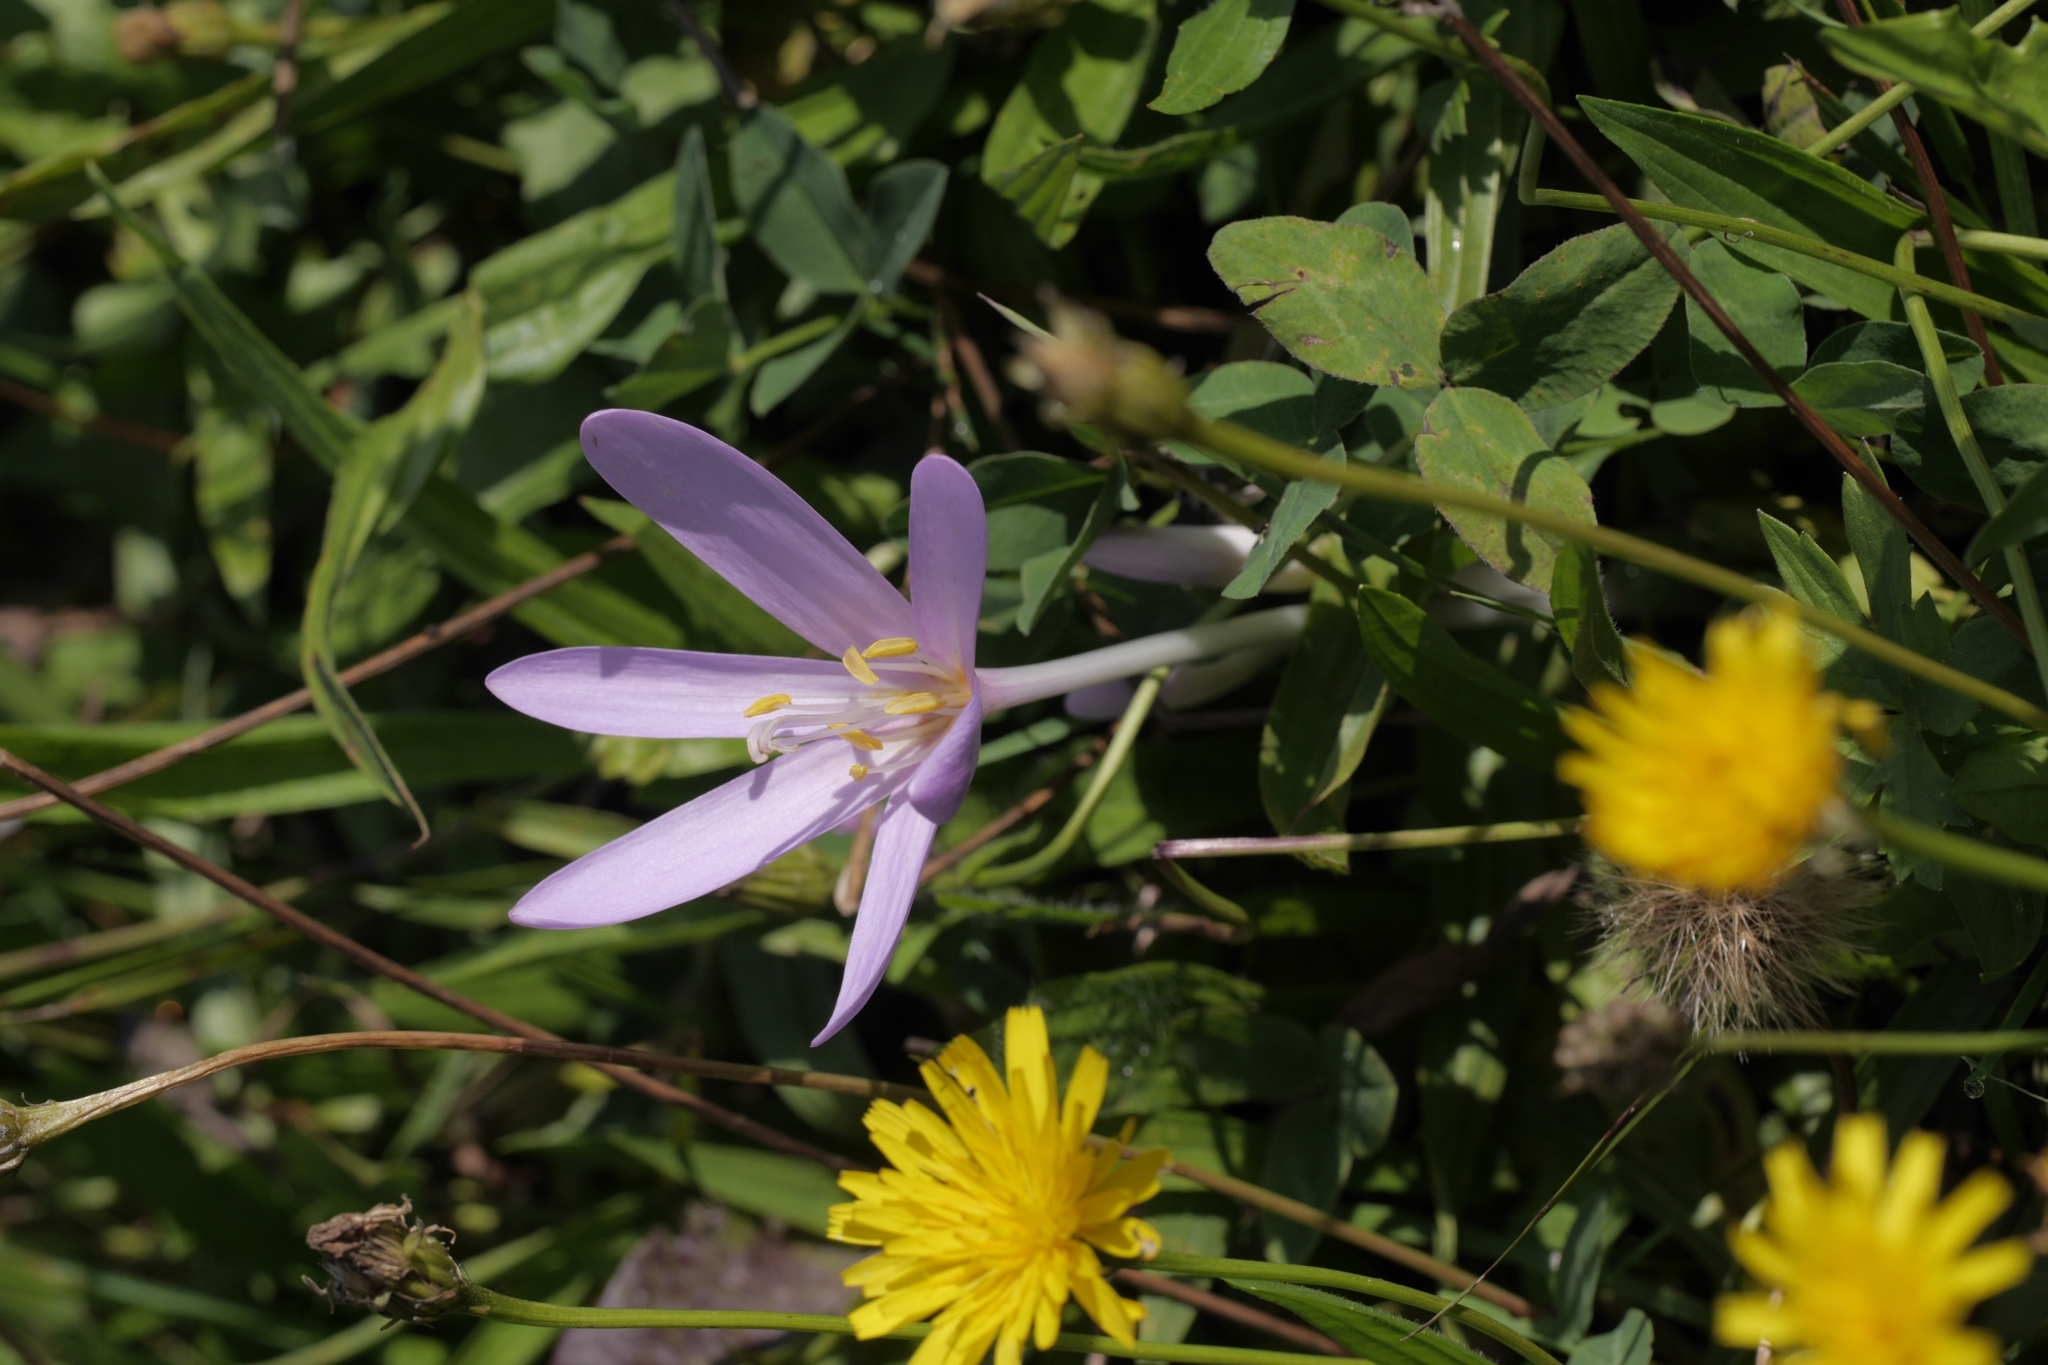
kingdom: Plantae
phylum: Tracheophyta
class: Liliopsida
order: Liliales
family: Colchicaceae
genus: Colchicum
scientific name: Colchicum autumnale
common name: Autumn crocus
